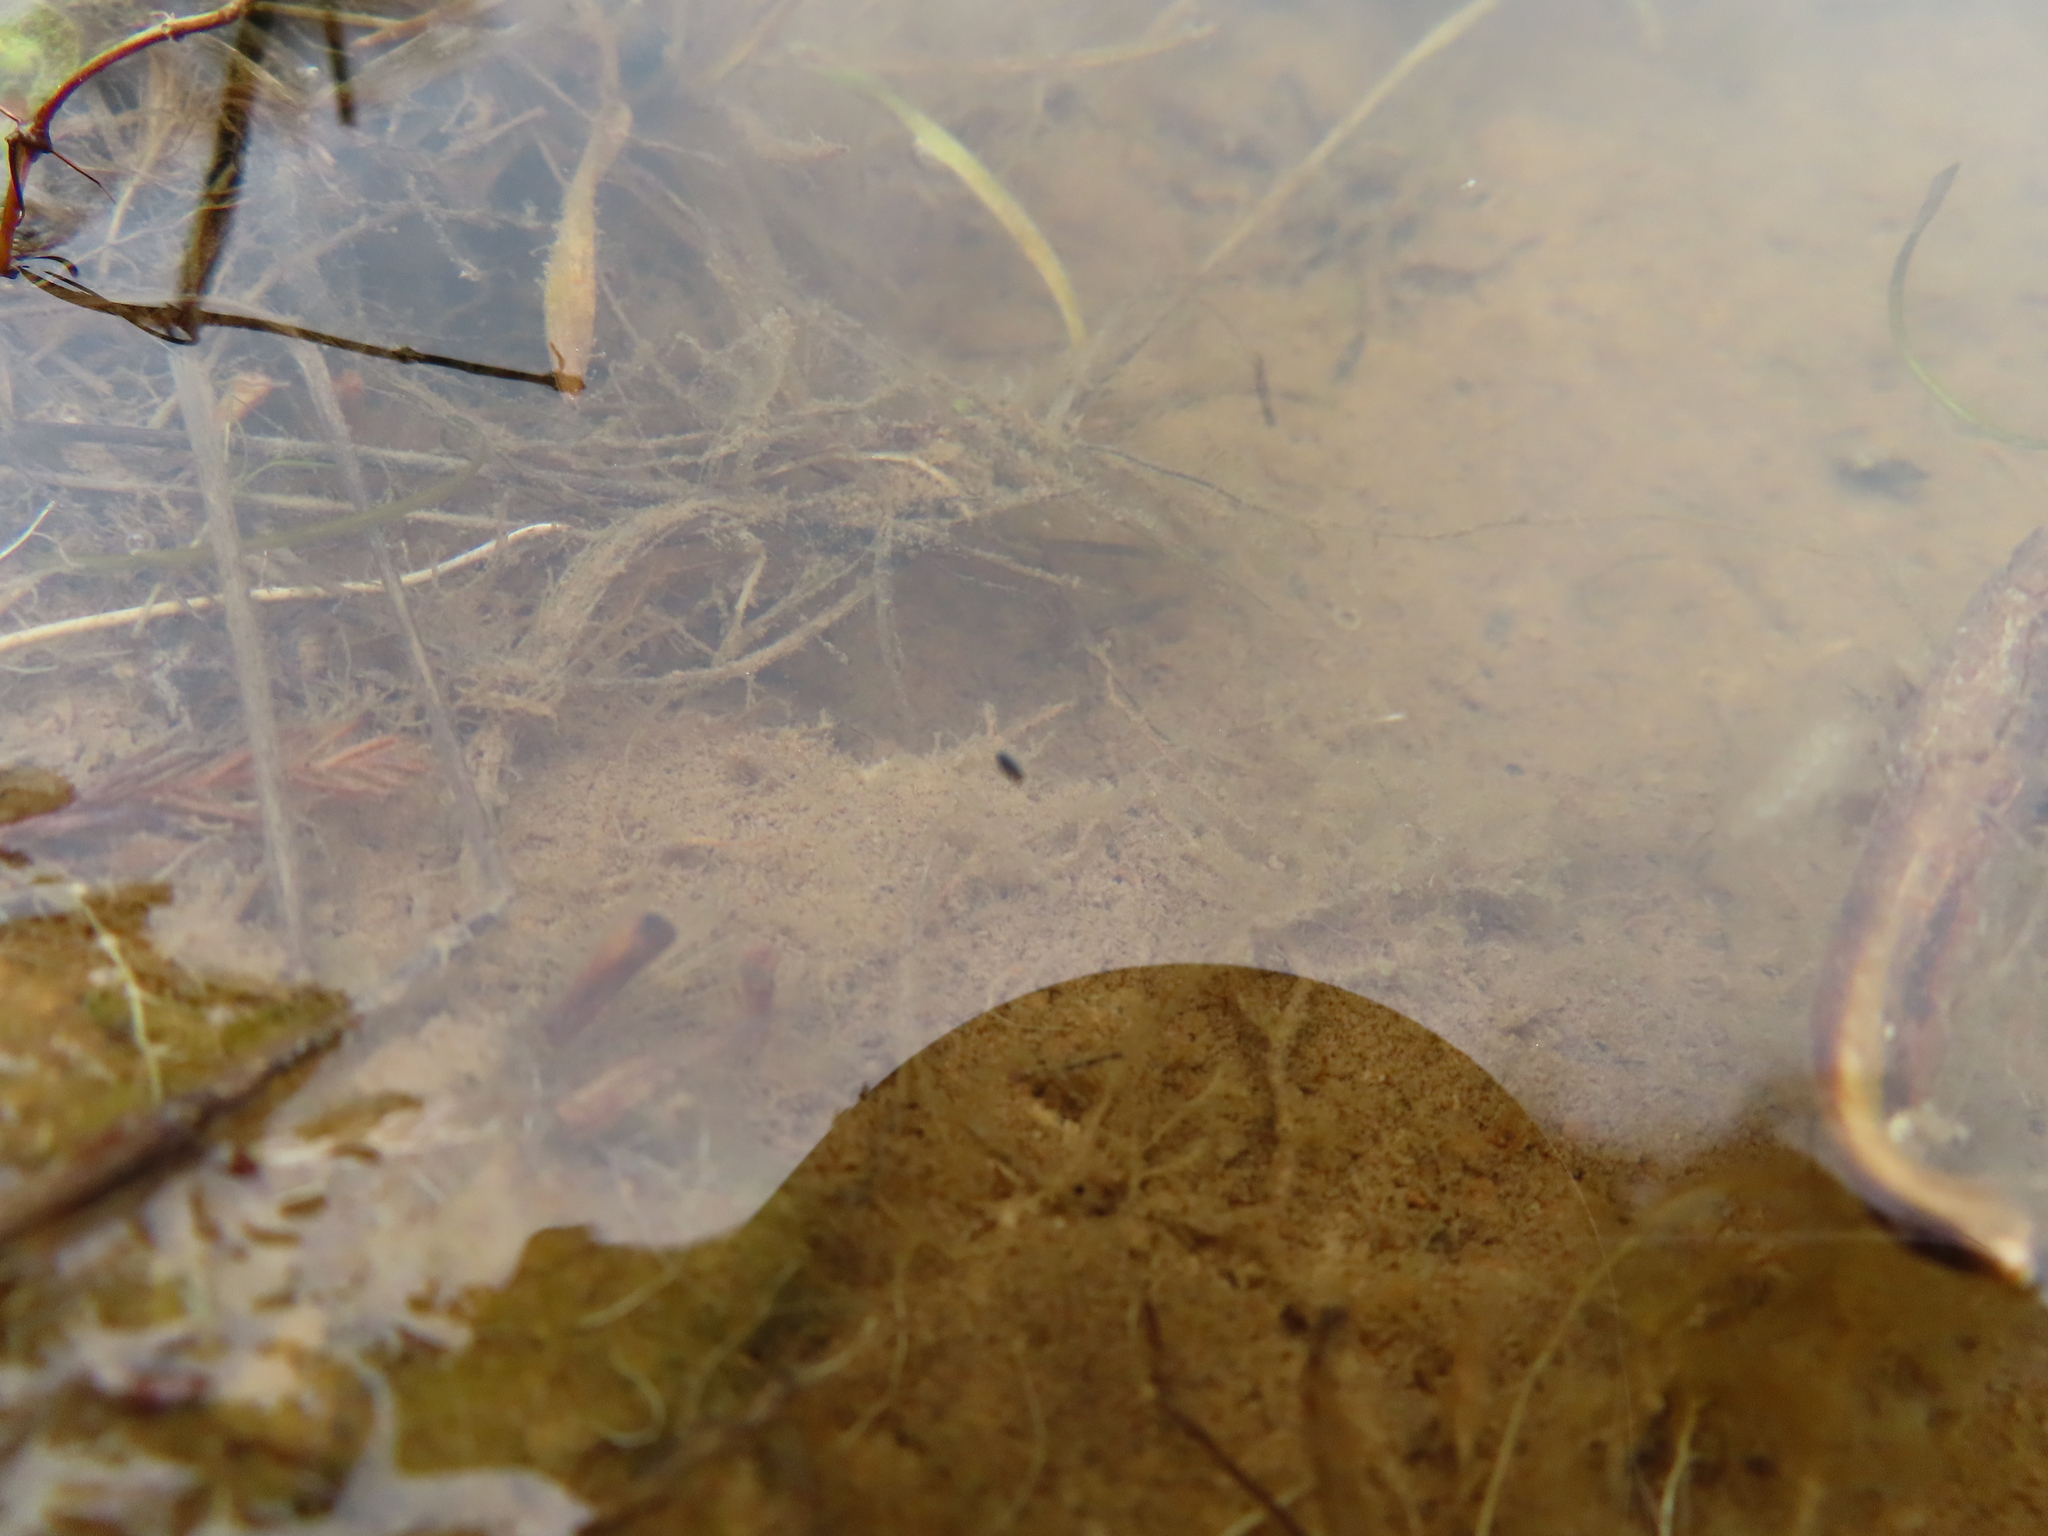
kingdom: Animalia
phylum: Arthropoda
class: Collembola
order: Poduromorpha
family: Poduridae
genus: Podura
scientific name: Podura aquatica
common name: Water springtail
